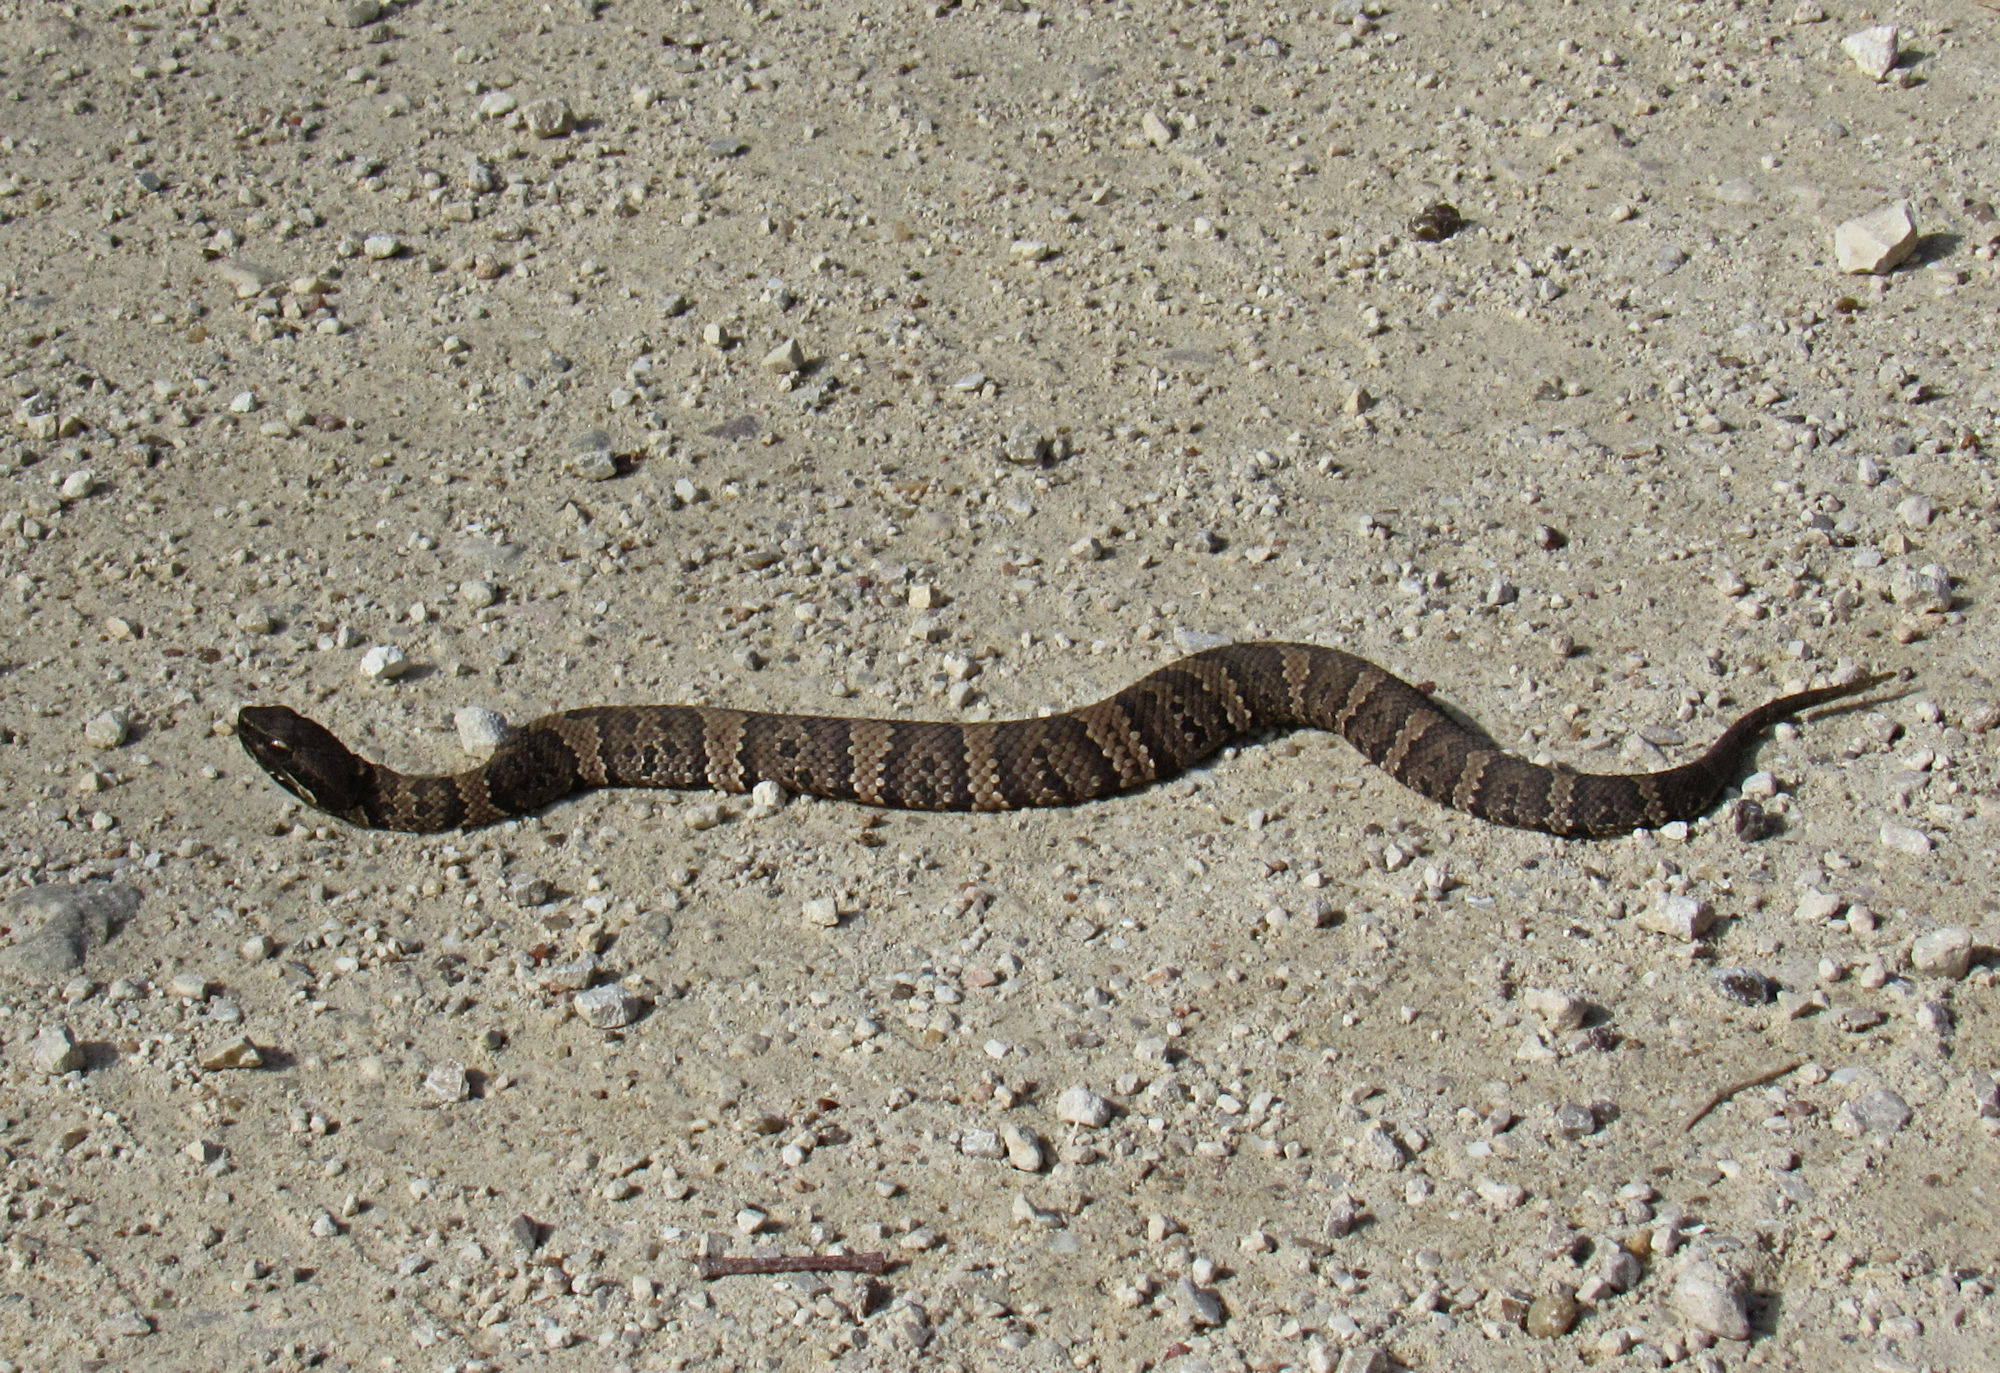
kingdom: Animalia
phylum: Chordata
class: Squamata
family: Viperidae
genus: Agkistrodon
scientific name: Agkistrodon piscivorus
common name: Cottonmouth
